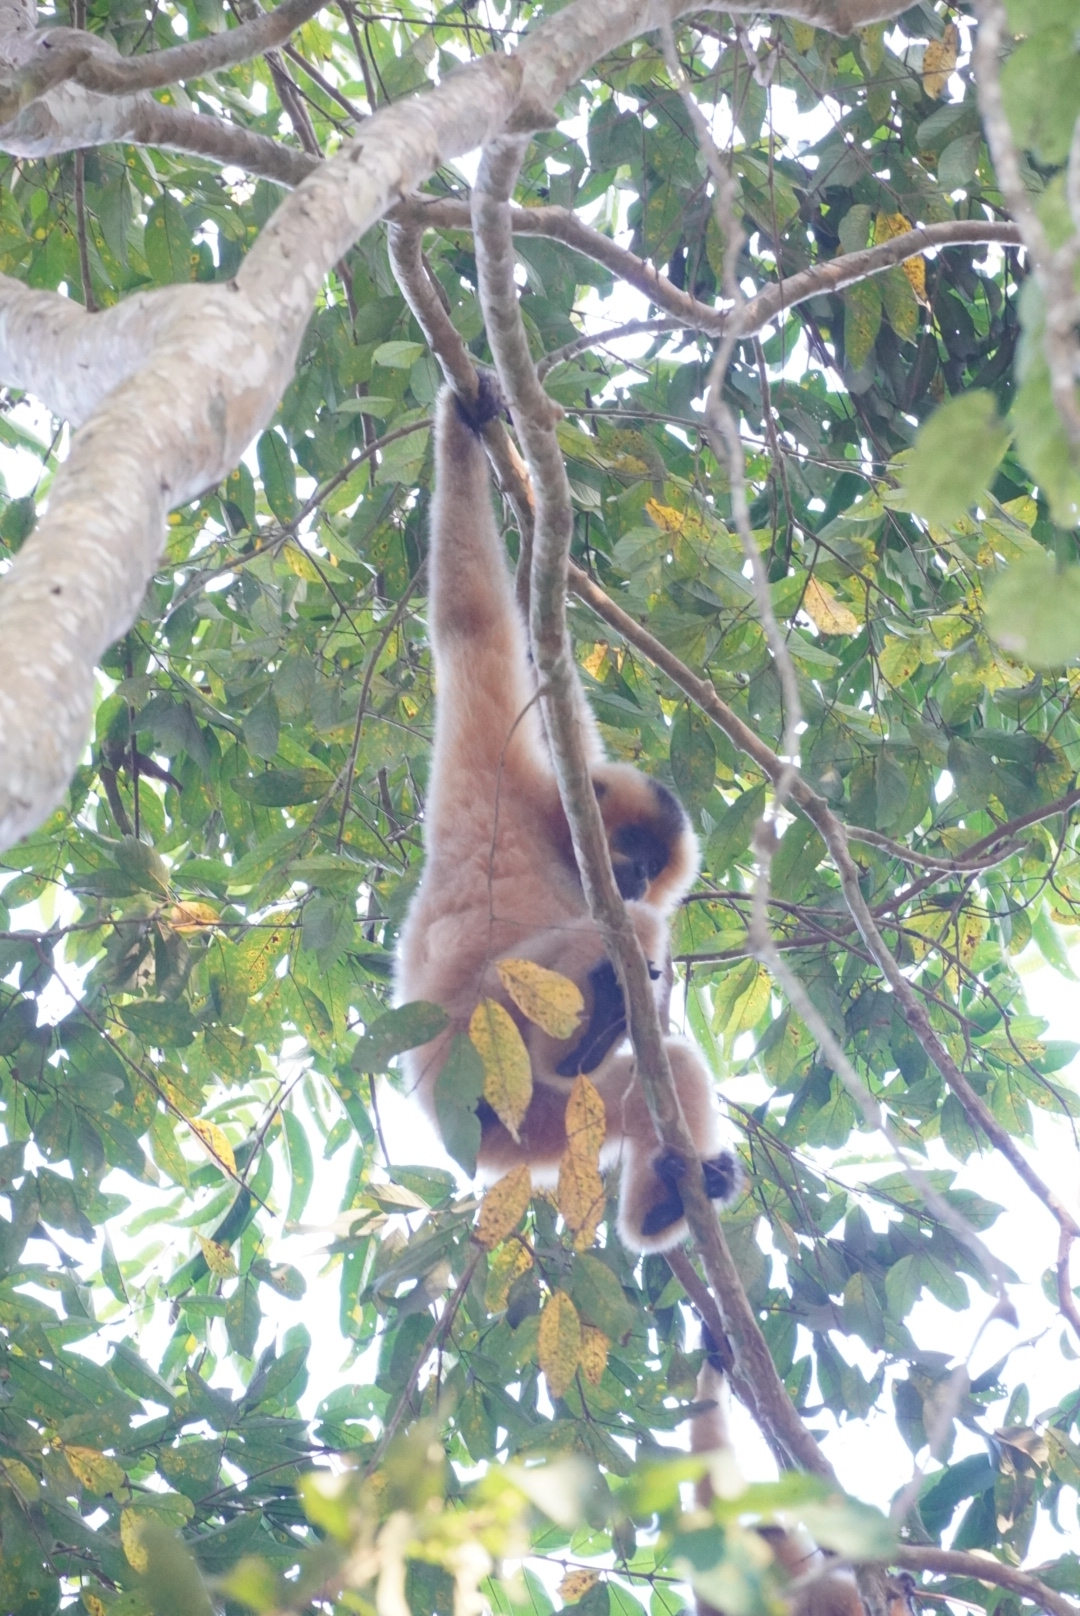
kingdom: Animalia
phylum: Chordata
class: Mammalia
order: Primates
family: Hylobatidae
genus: Nomascus
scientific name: Nomascus gabriellae
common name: Red-cheeked gibbon
